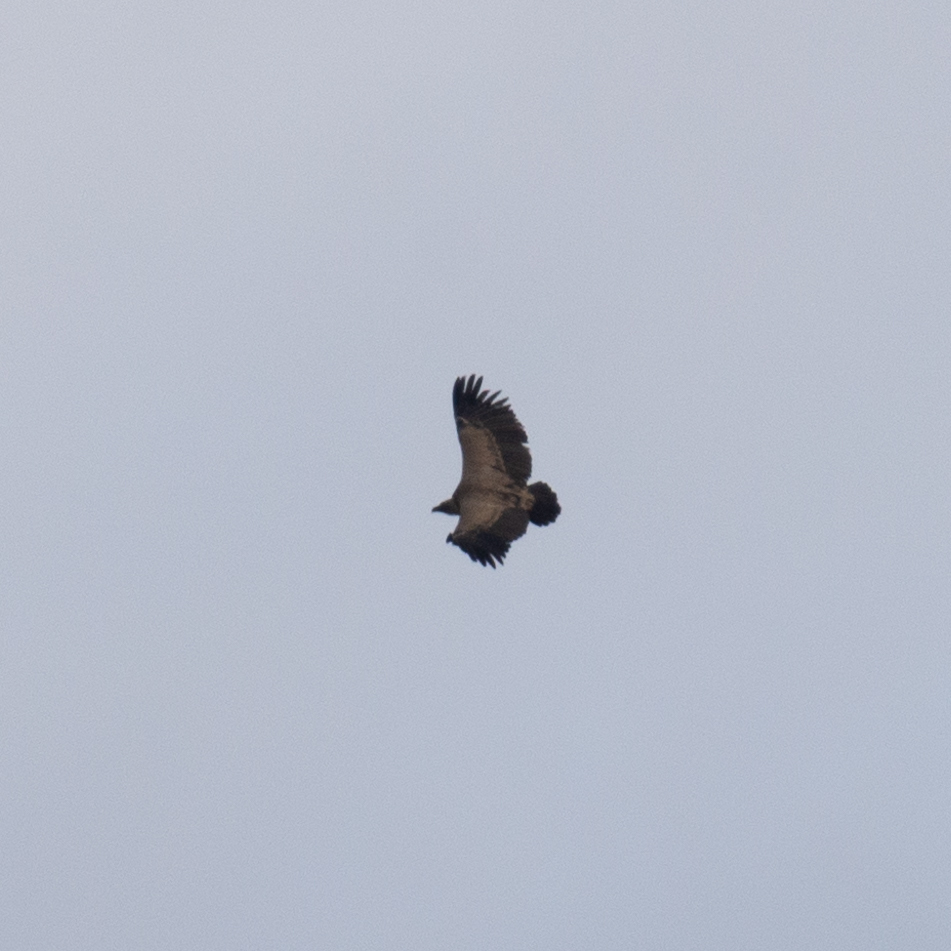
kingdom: Animalia
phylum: Chordata
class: Aves
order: Accipitriformes
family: Accipitridae
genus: Gyps
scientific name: Gyps fulvus
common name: Griffon vulture
